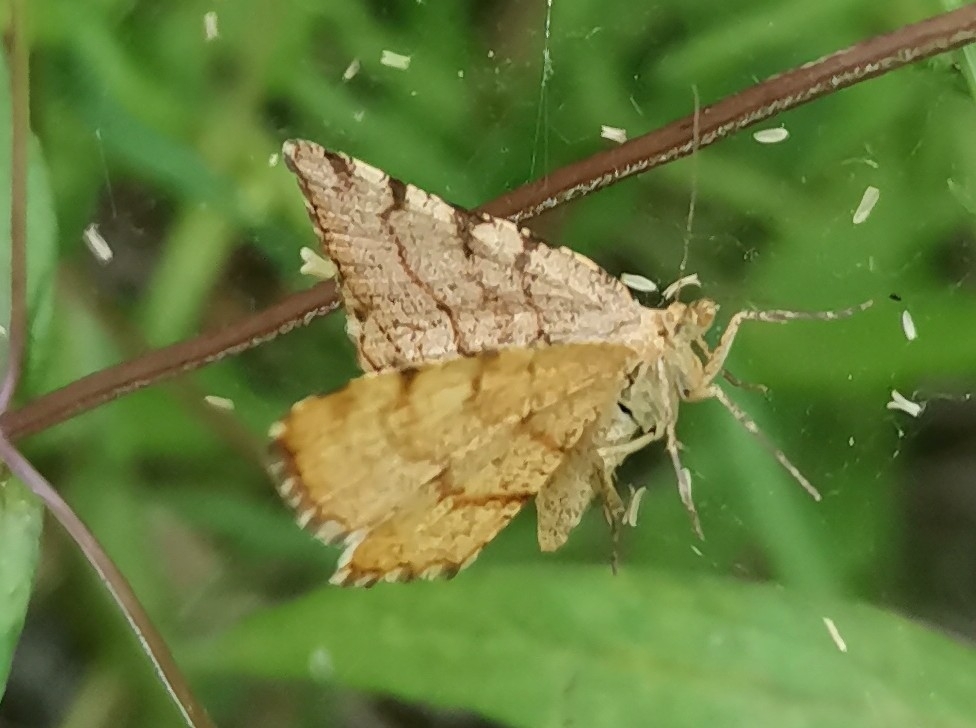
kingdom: Animalia
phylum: Arthropoda
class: Insecta
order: Lepidoptera
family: Geometridae
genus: Macaria
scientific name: Macaria brunneata
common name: Rannoch looper
